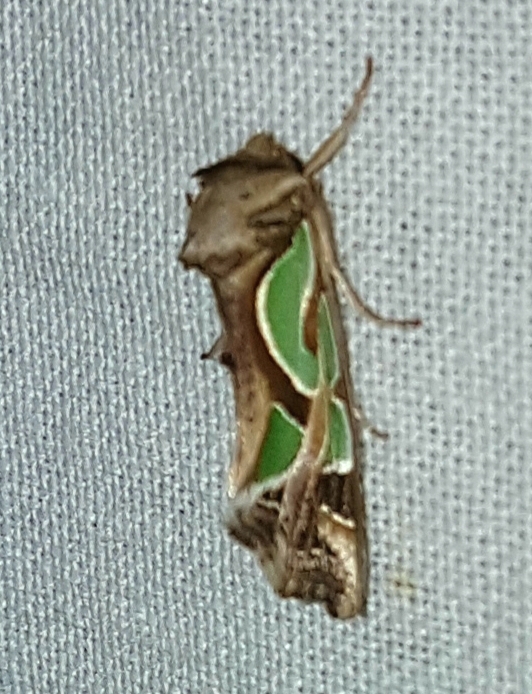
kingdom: Animalia
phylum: Arthropoda
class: Insecta
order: Lepidoptera
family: Noctuidae
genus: Cosmodes
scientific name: Cosmodes elegans
